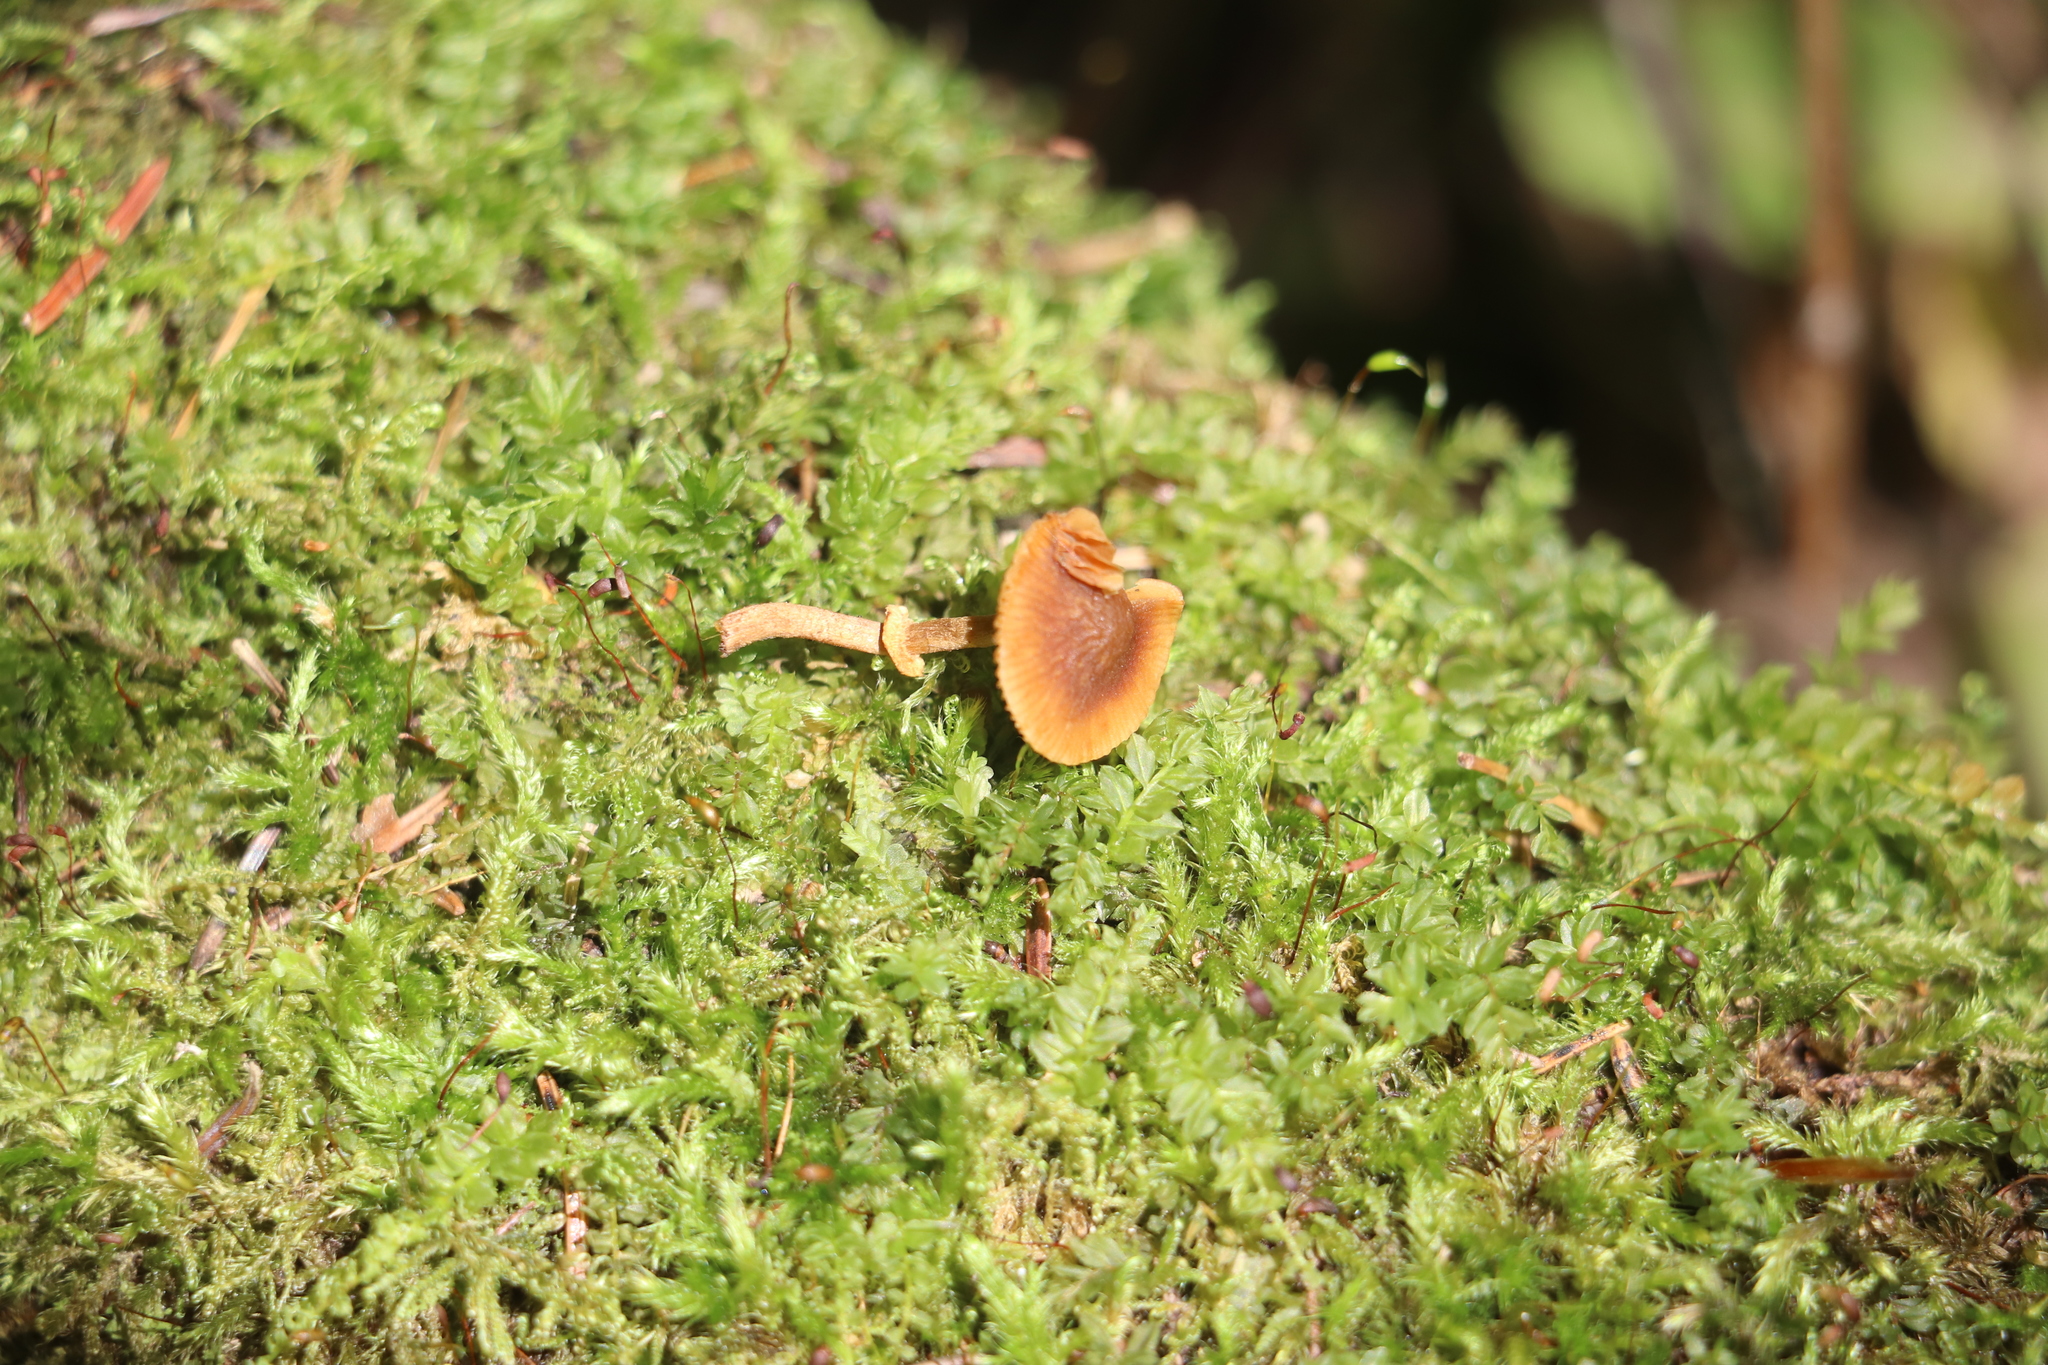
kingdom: Fungi
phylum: Basidiomycota
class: Agaricomycetes
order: Agaricales
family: Bolbitiaceae
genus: Conocybe
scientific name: Conocybe rugosa
